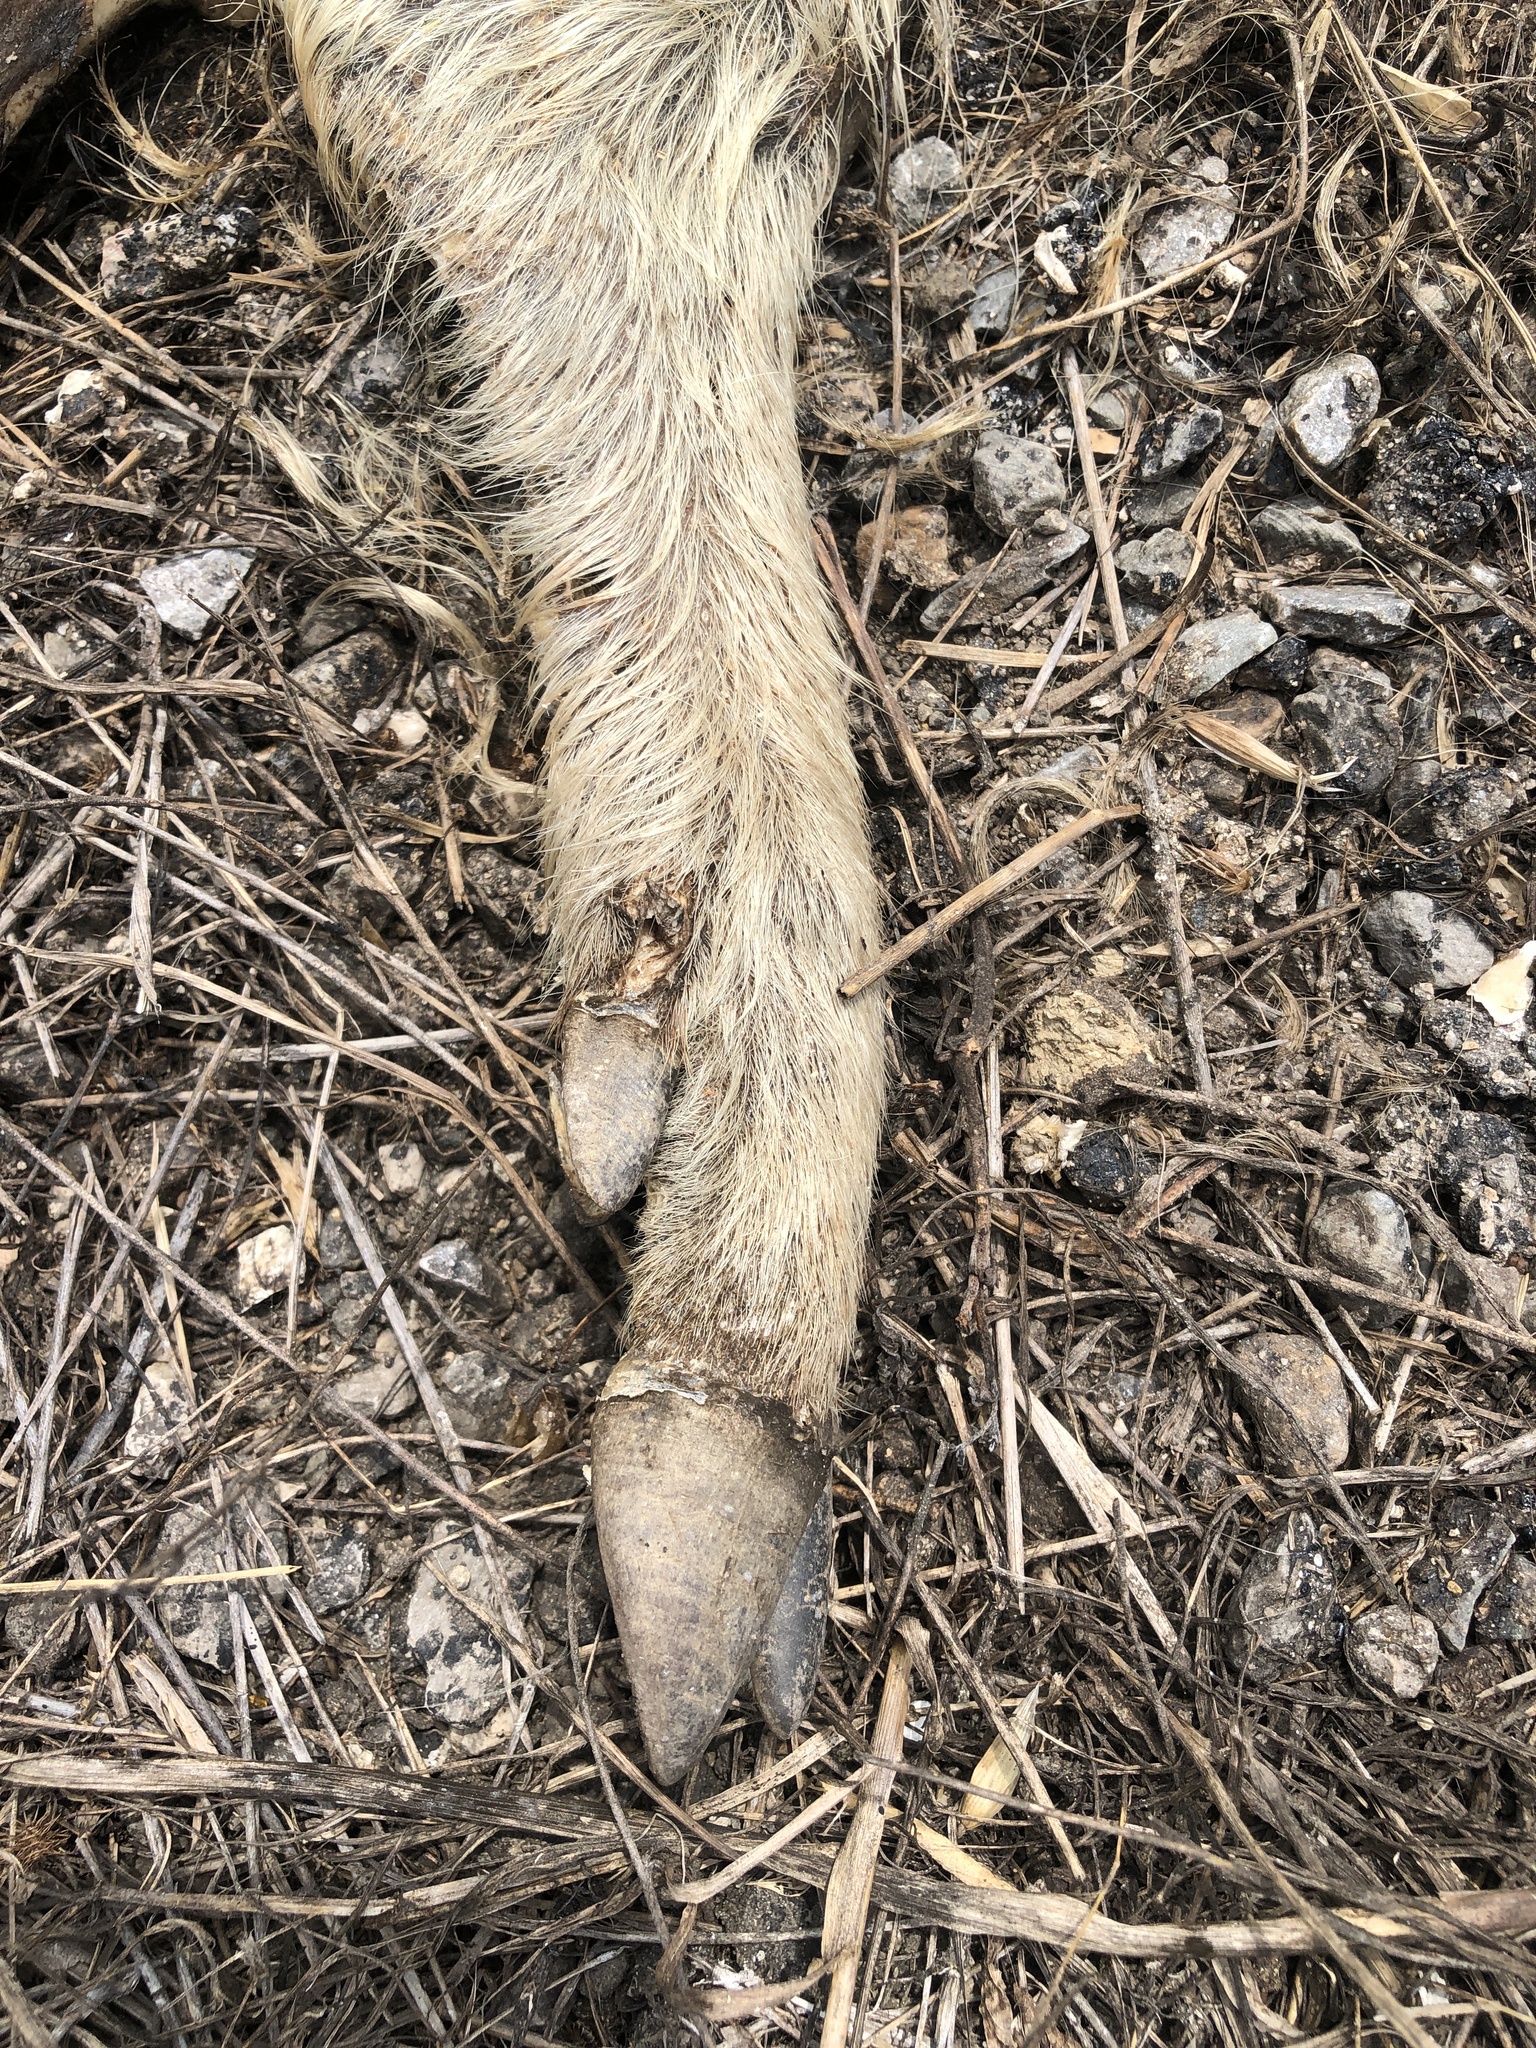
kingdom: Animalia
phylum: Chordata
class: Mammalia
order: Artiodactyla
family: Suidae
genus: Sus
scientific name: Sus scrofa
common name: Wild boar
